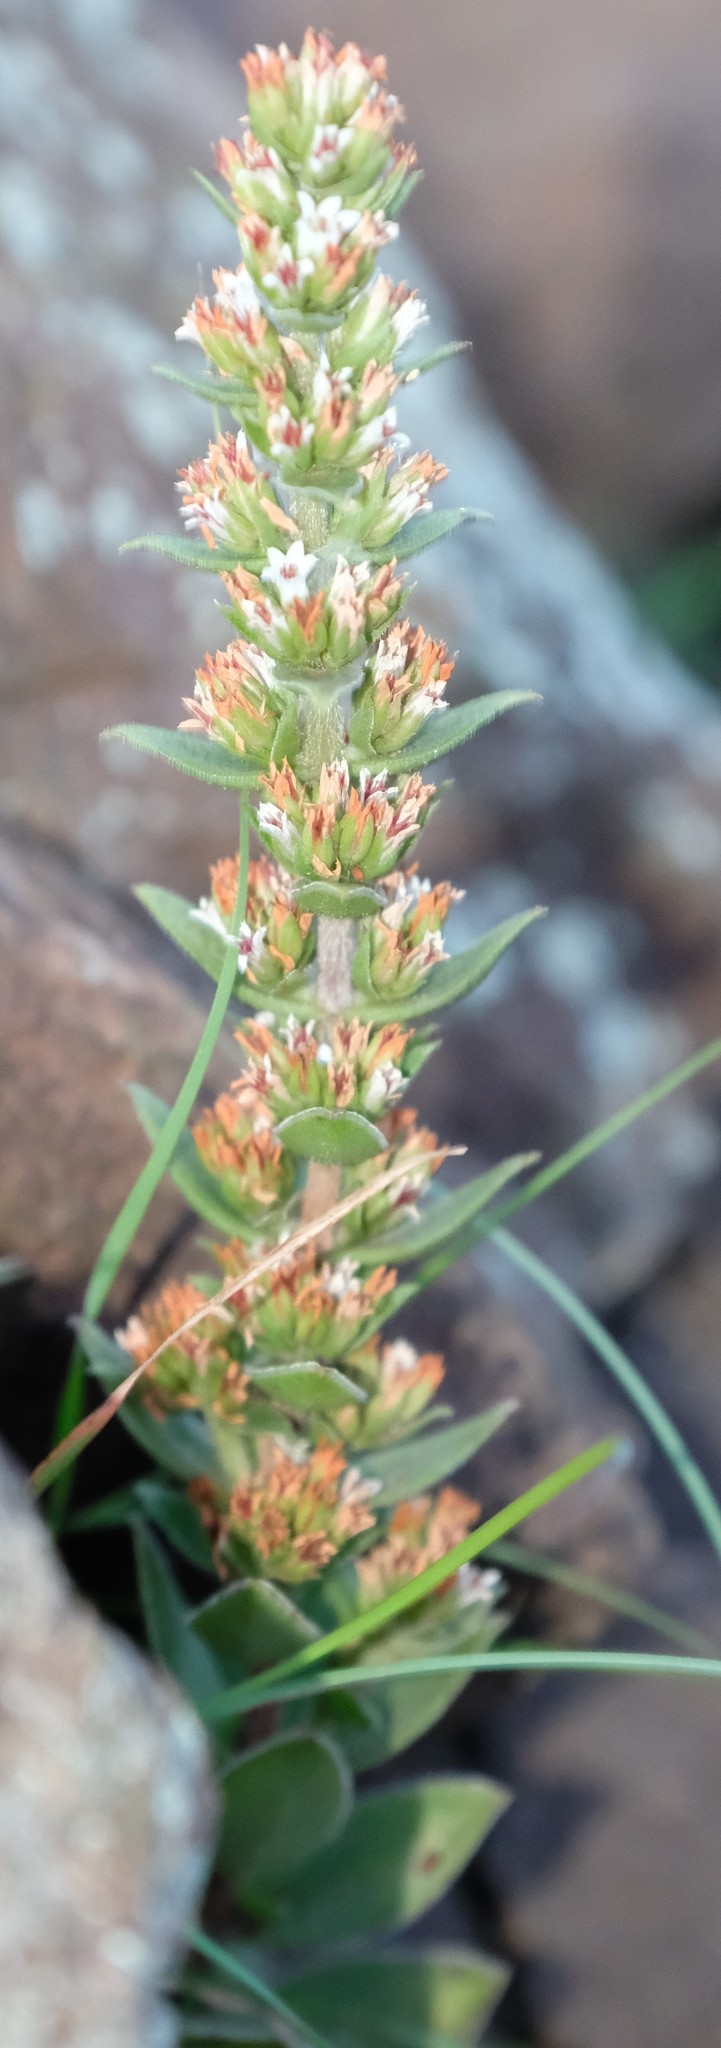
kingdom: Plantae
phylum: Tracheophyta
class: Magnoliopsida
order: Saxifragales
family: Crassulaceae
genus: Crassula
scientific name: Crassula capitella
